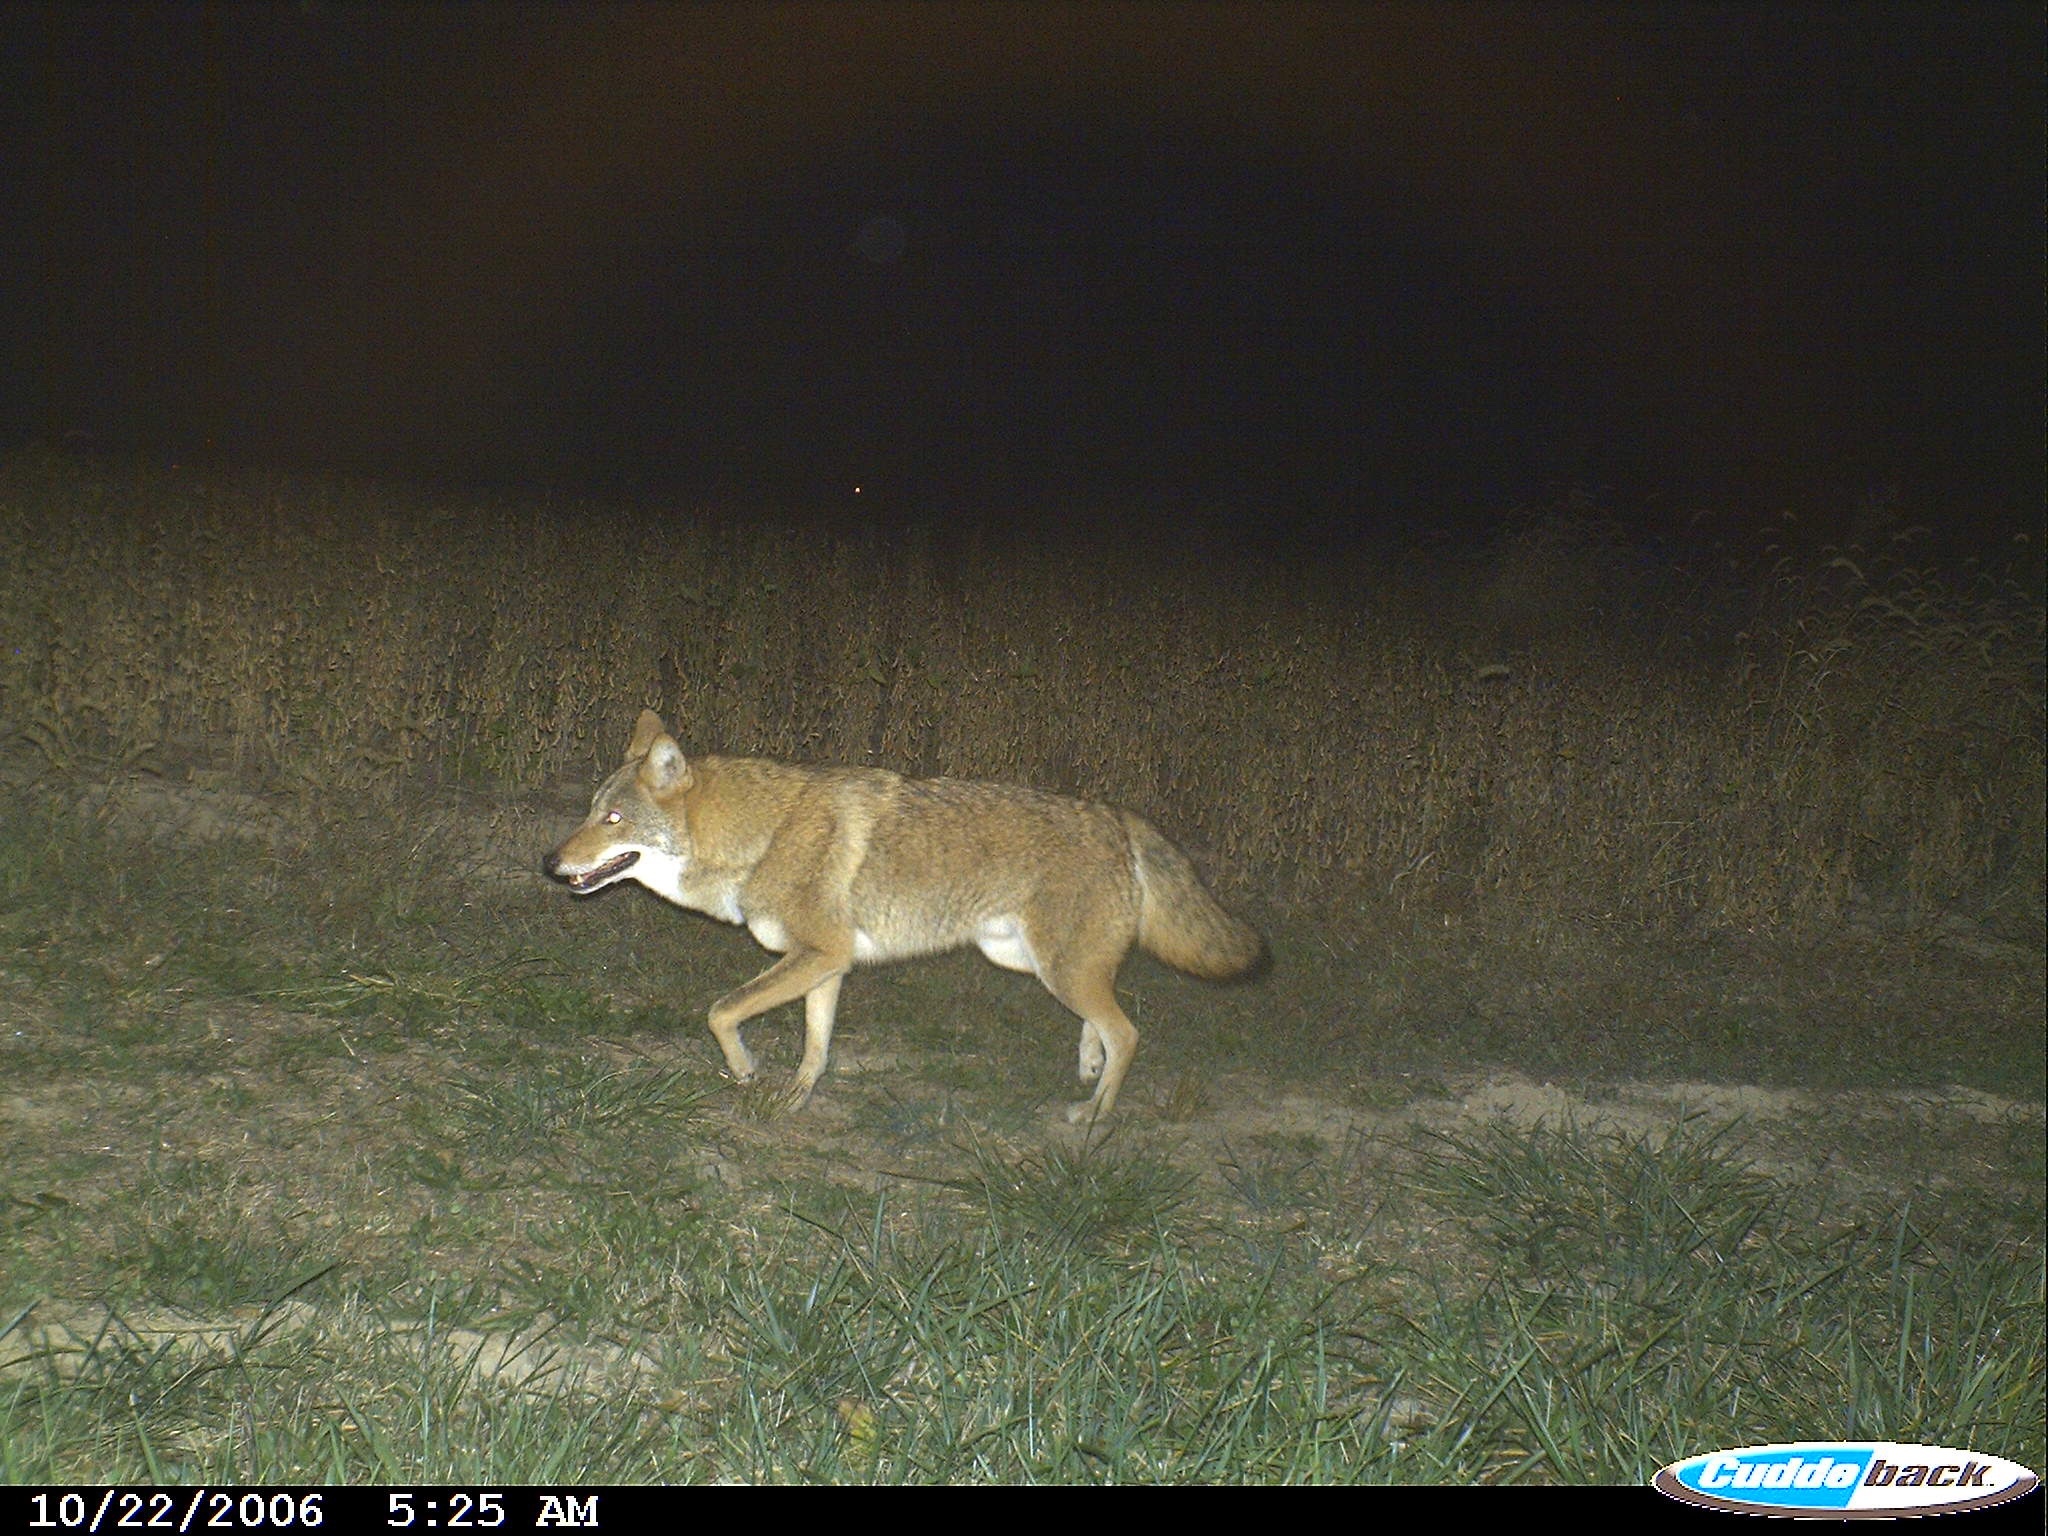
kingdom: Animalia
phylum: Chordata
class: Mammalia
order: Carnivora
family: Canidae
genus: Canis
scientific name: Canis latrans
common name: Coyote
